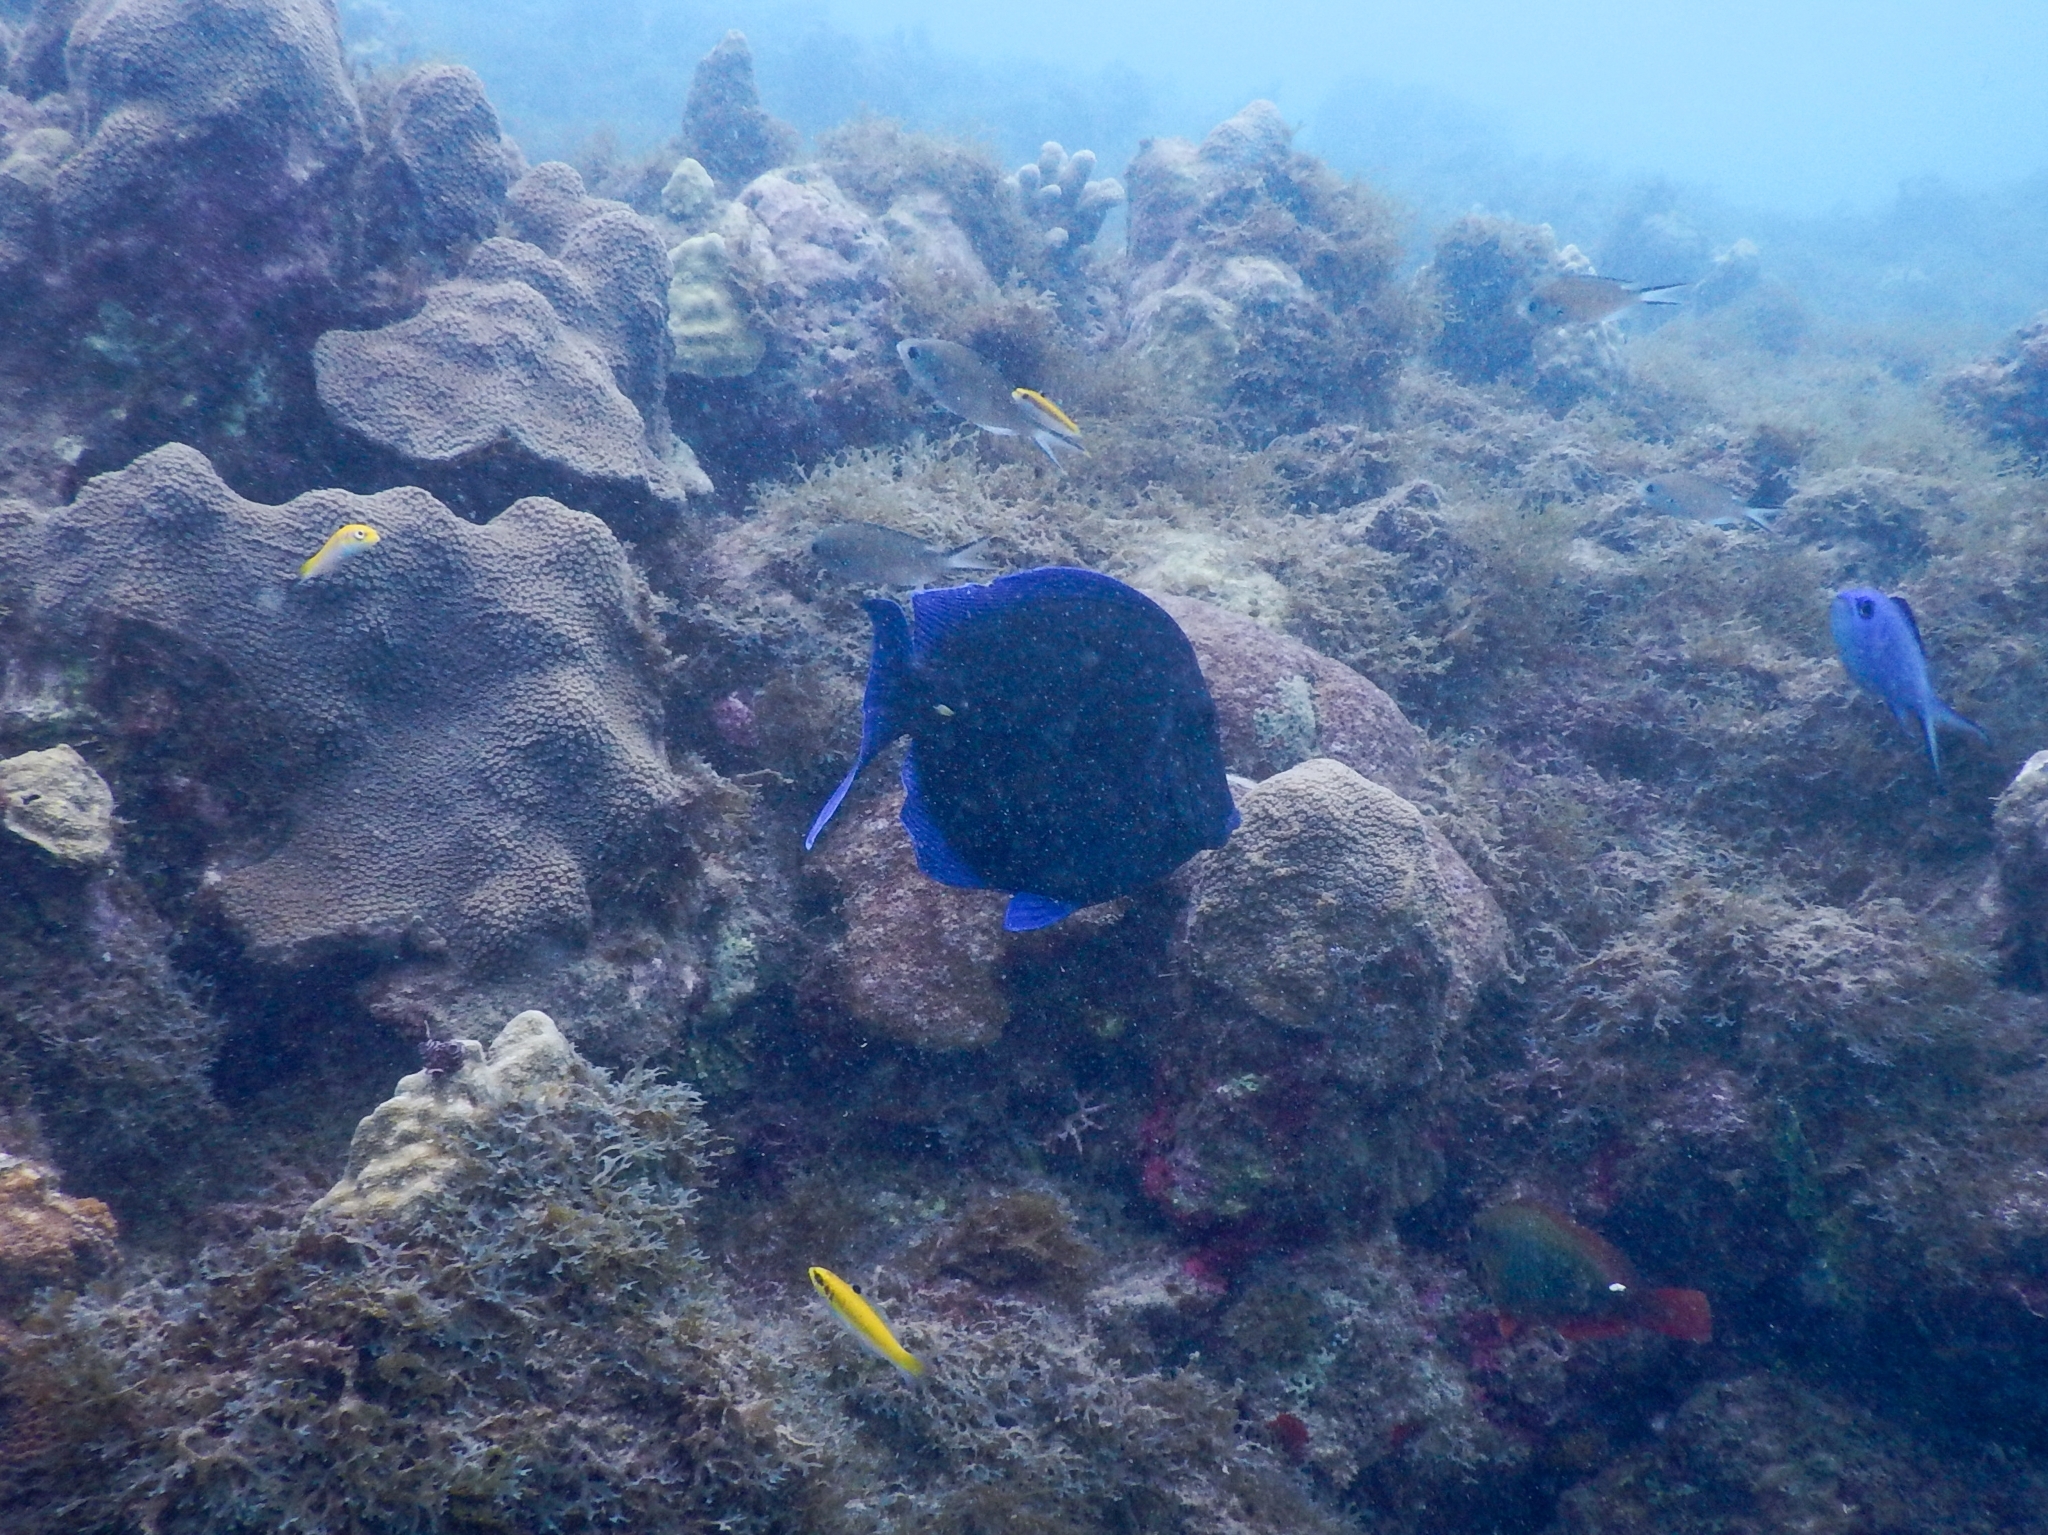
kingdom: Animalia
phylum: Chordata
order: Perciformes
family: Acanthuridae
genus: Acanthurus
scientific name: Acanthurus coeruleus
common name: Blue tang
